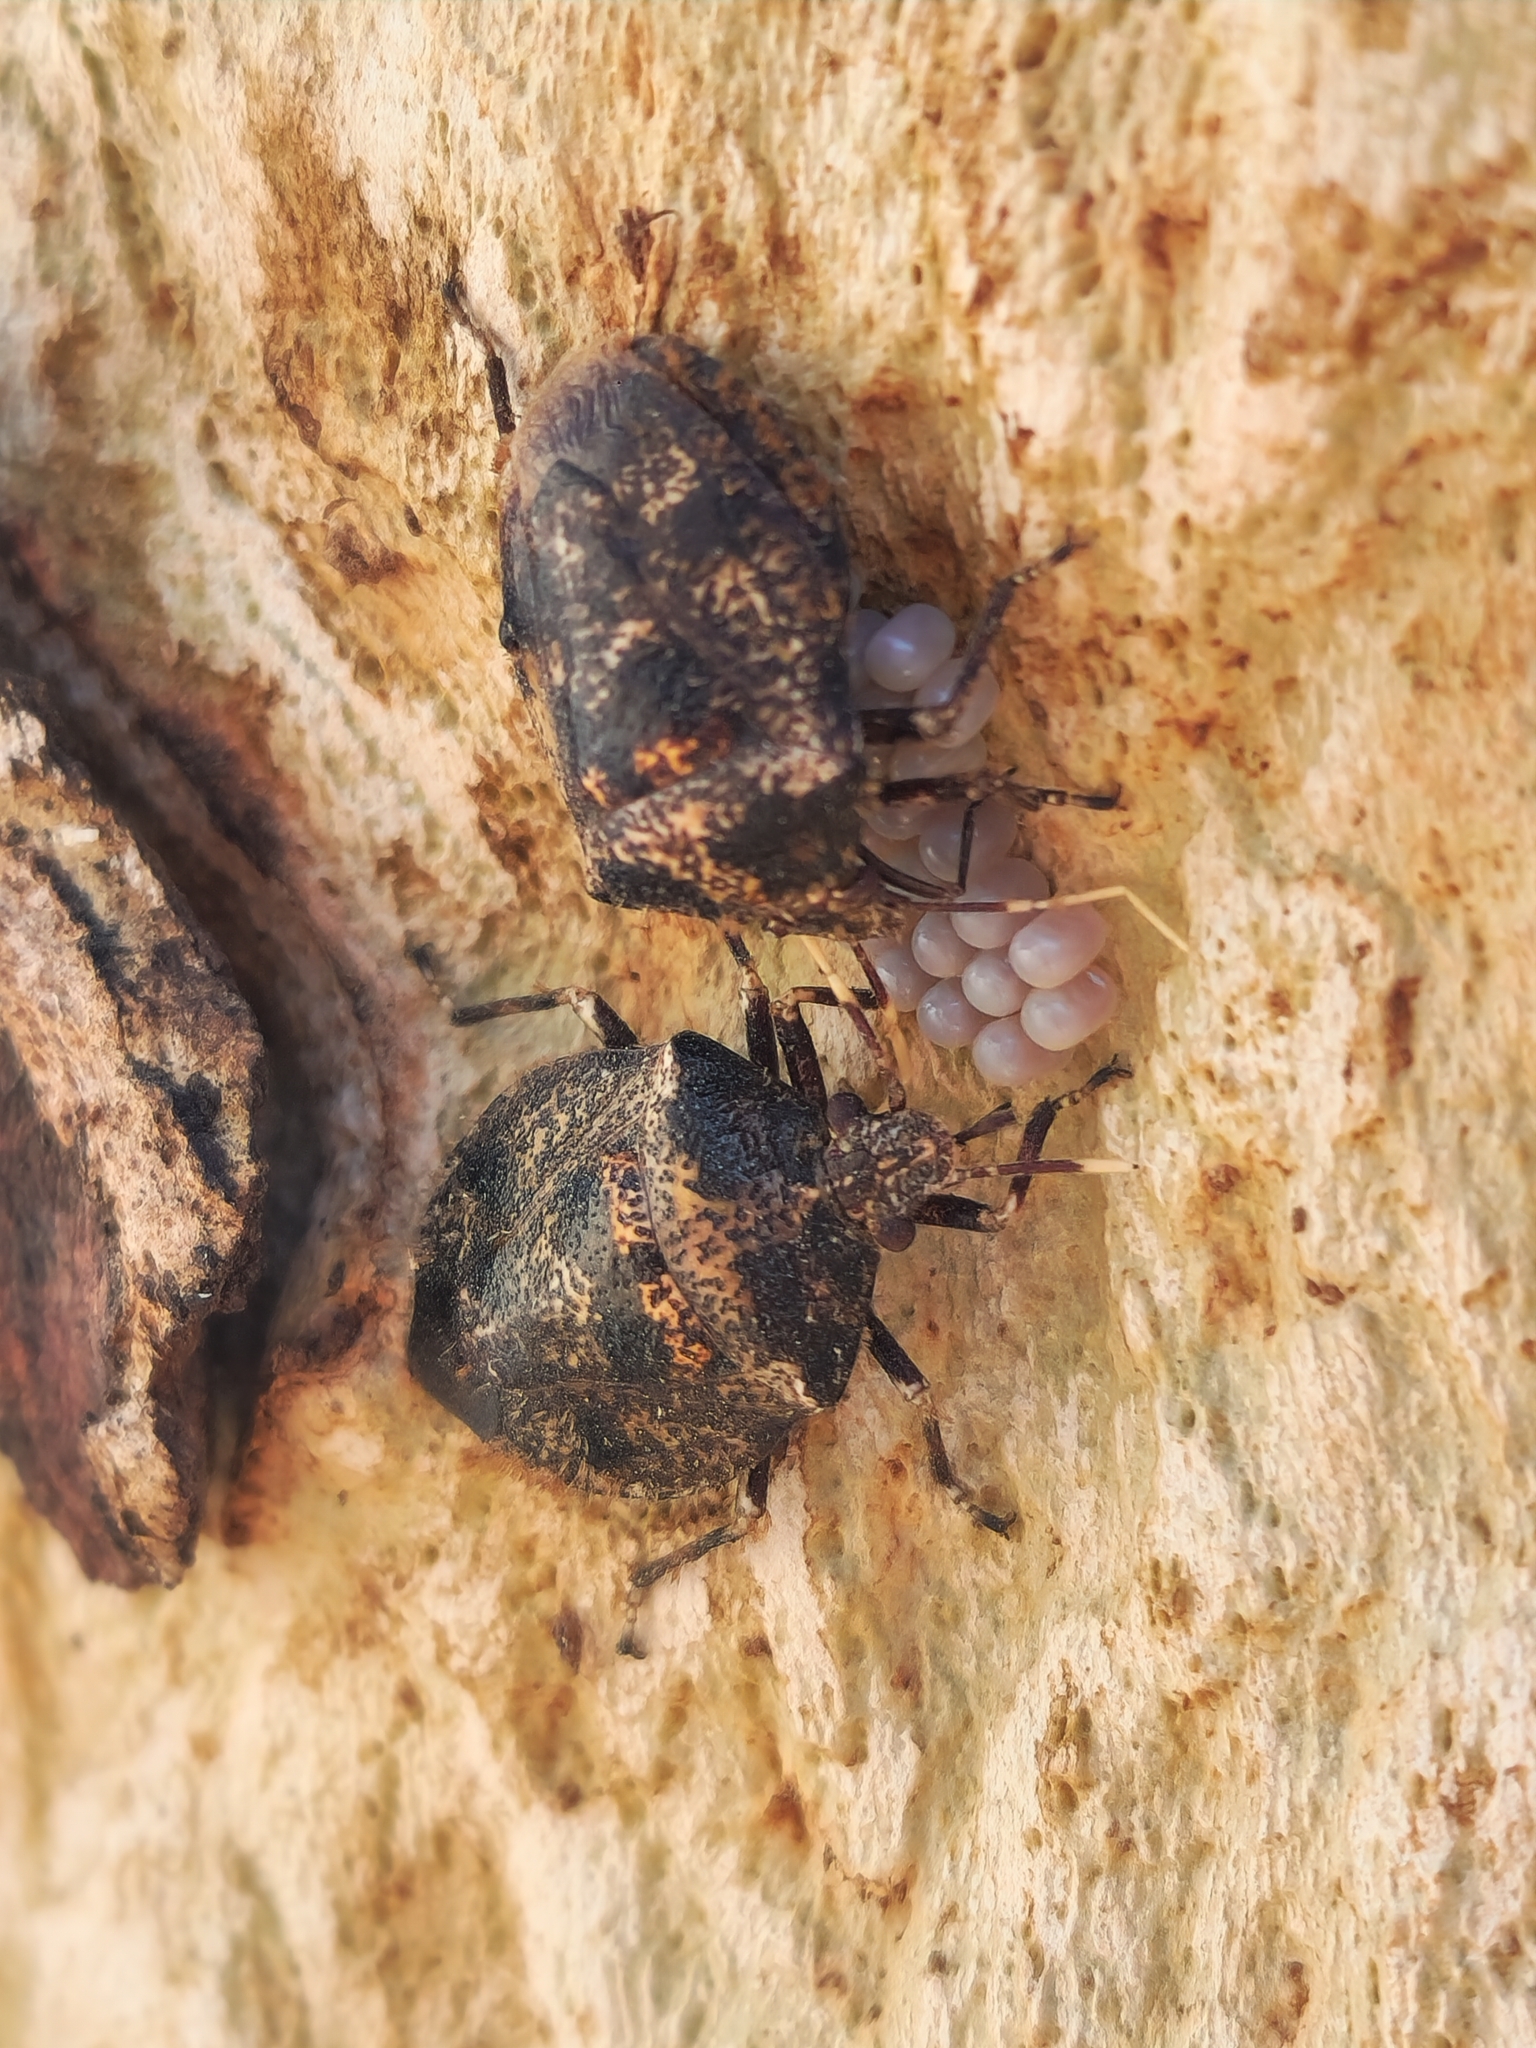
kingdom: Animalia
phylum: Arthropoda
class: Insecta
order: Hemiptera
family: Pentatomidae
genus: Antiteuchus
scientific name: Antiteuchus mixtus
